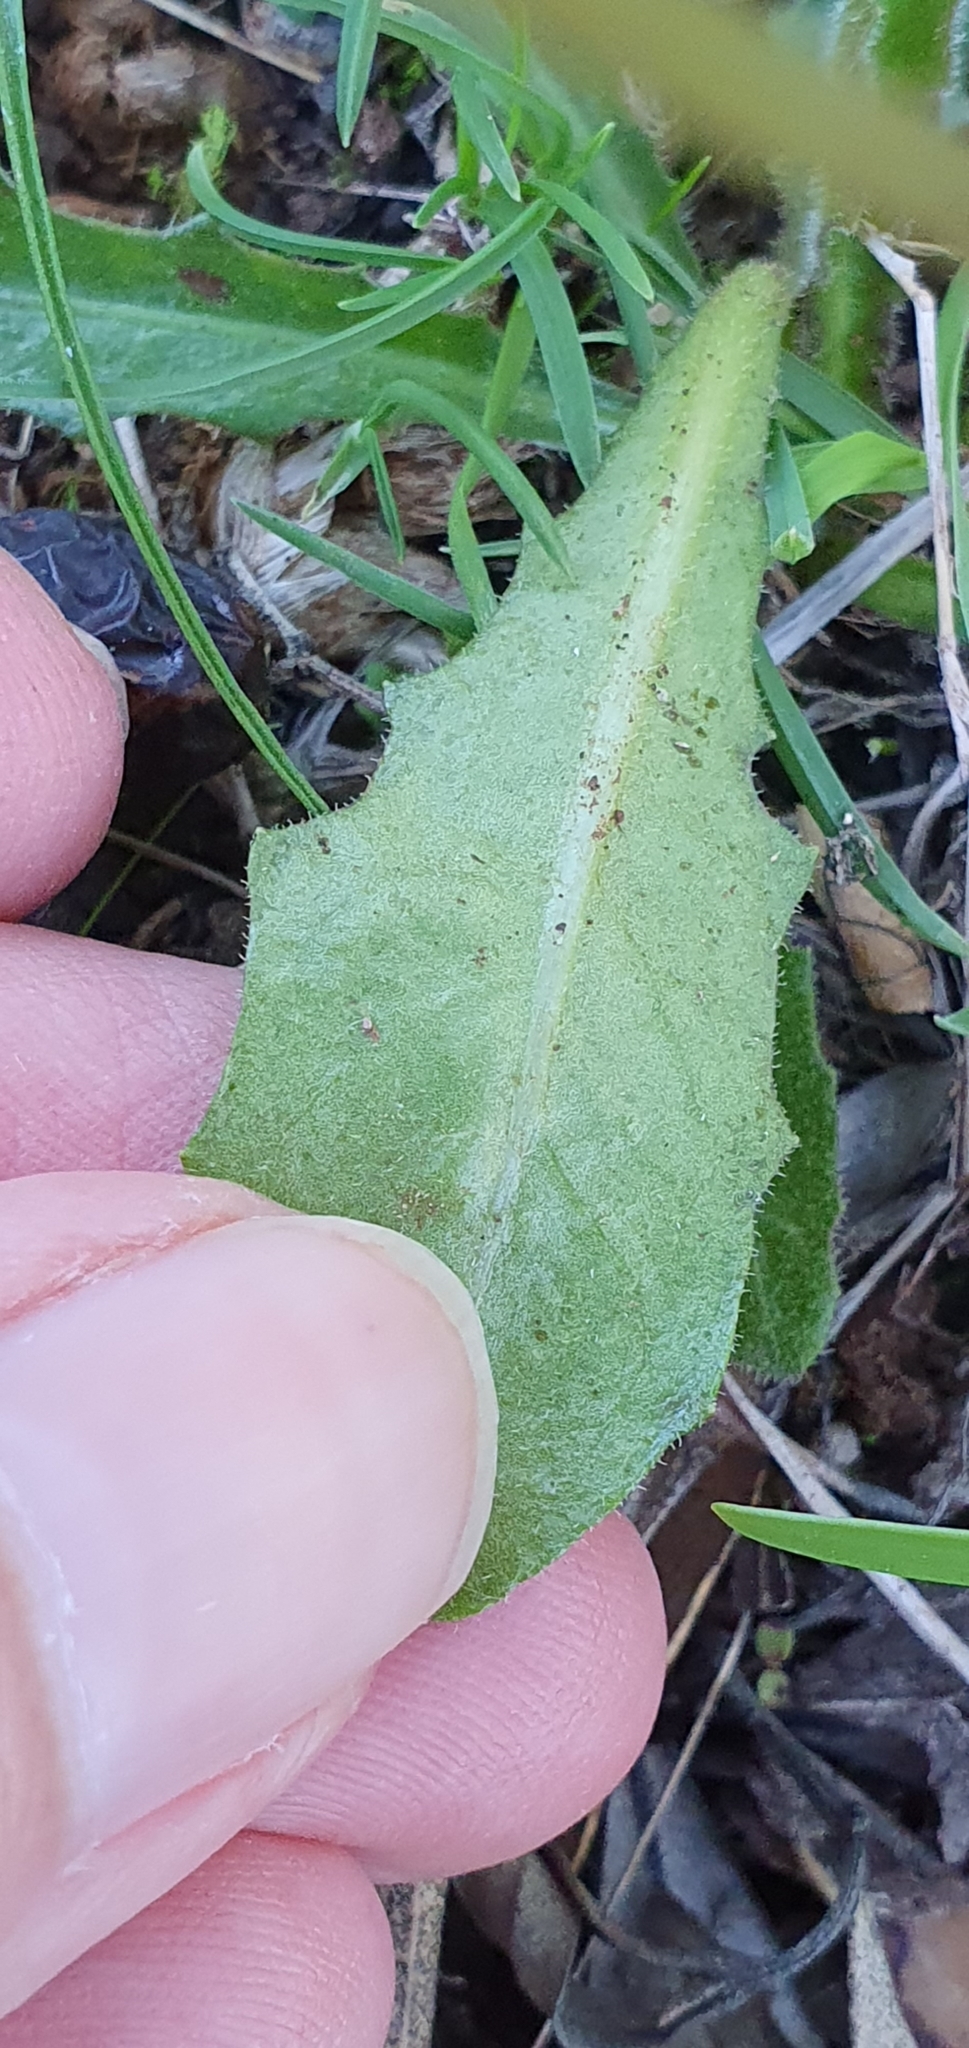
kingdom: Plantae
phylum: Tracheophyta
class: Magnoliopsida
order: Asterales
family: Asteraceae
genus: Leontodon
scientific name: Leontodon tuberosus
